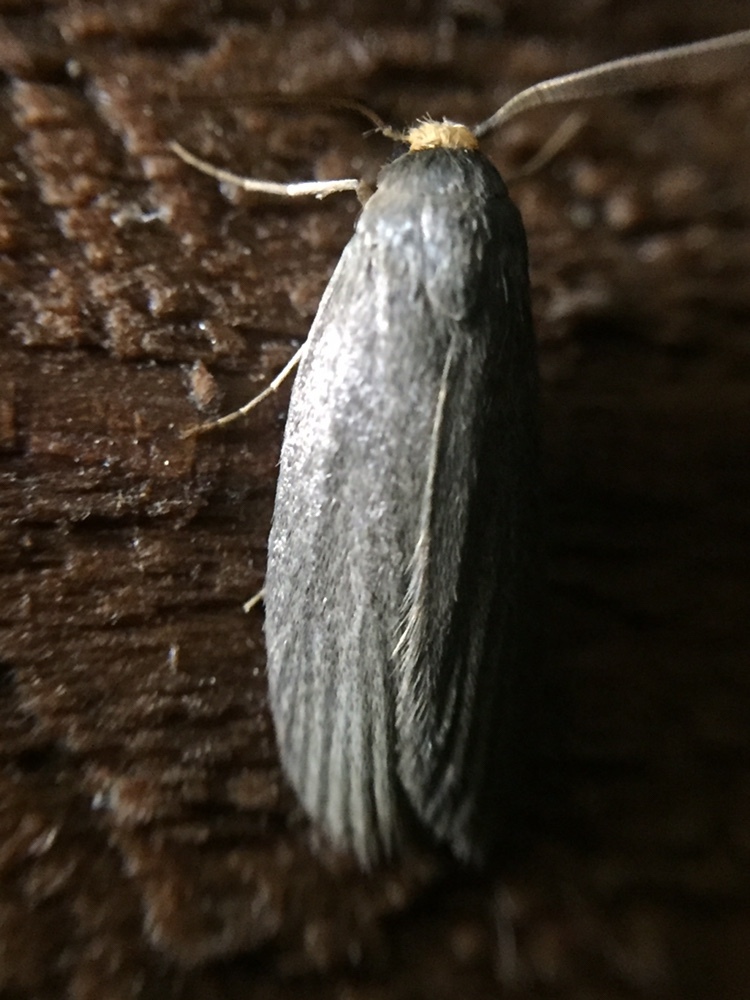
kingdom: Animalia
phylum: Arthropoda
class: Insecta
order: Lepidoptera
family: Pyralidae
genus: Achroia
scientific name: Achroia grisella
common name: Lesser wax moth
